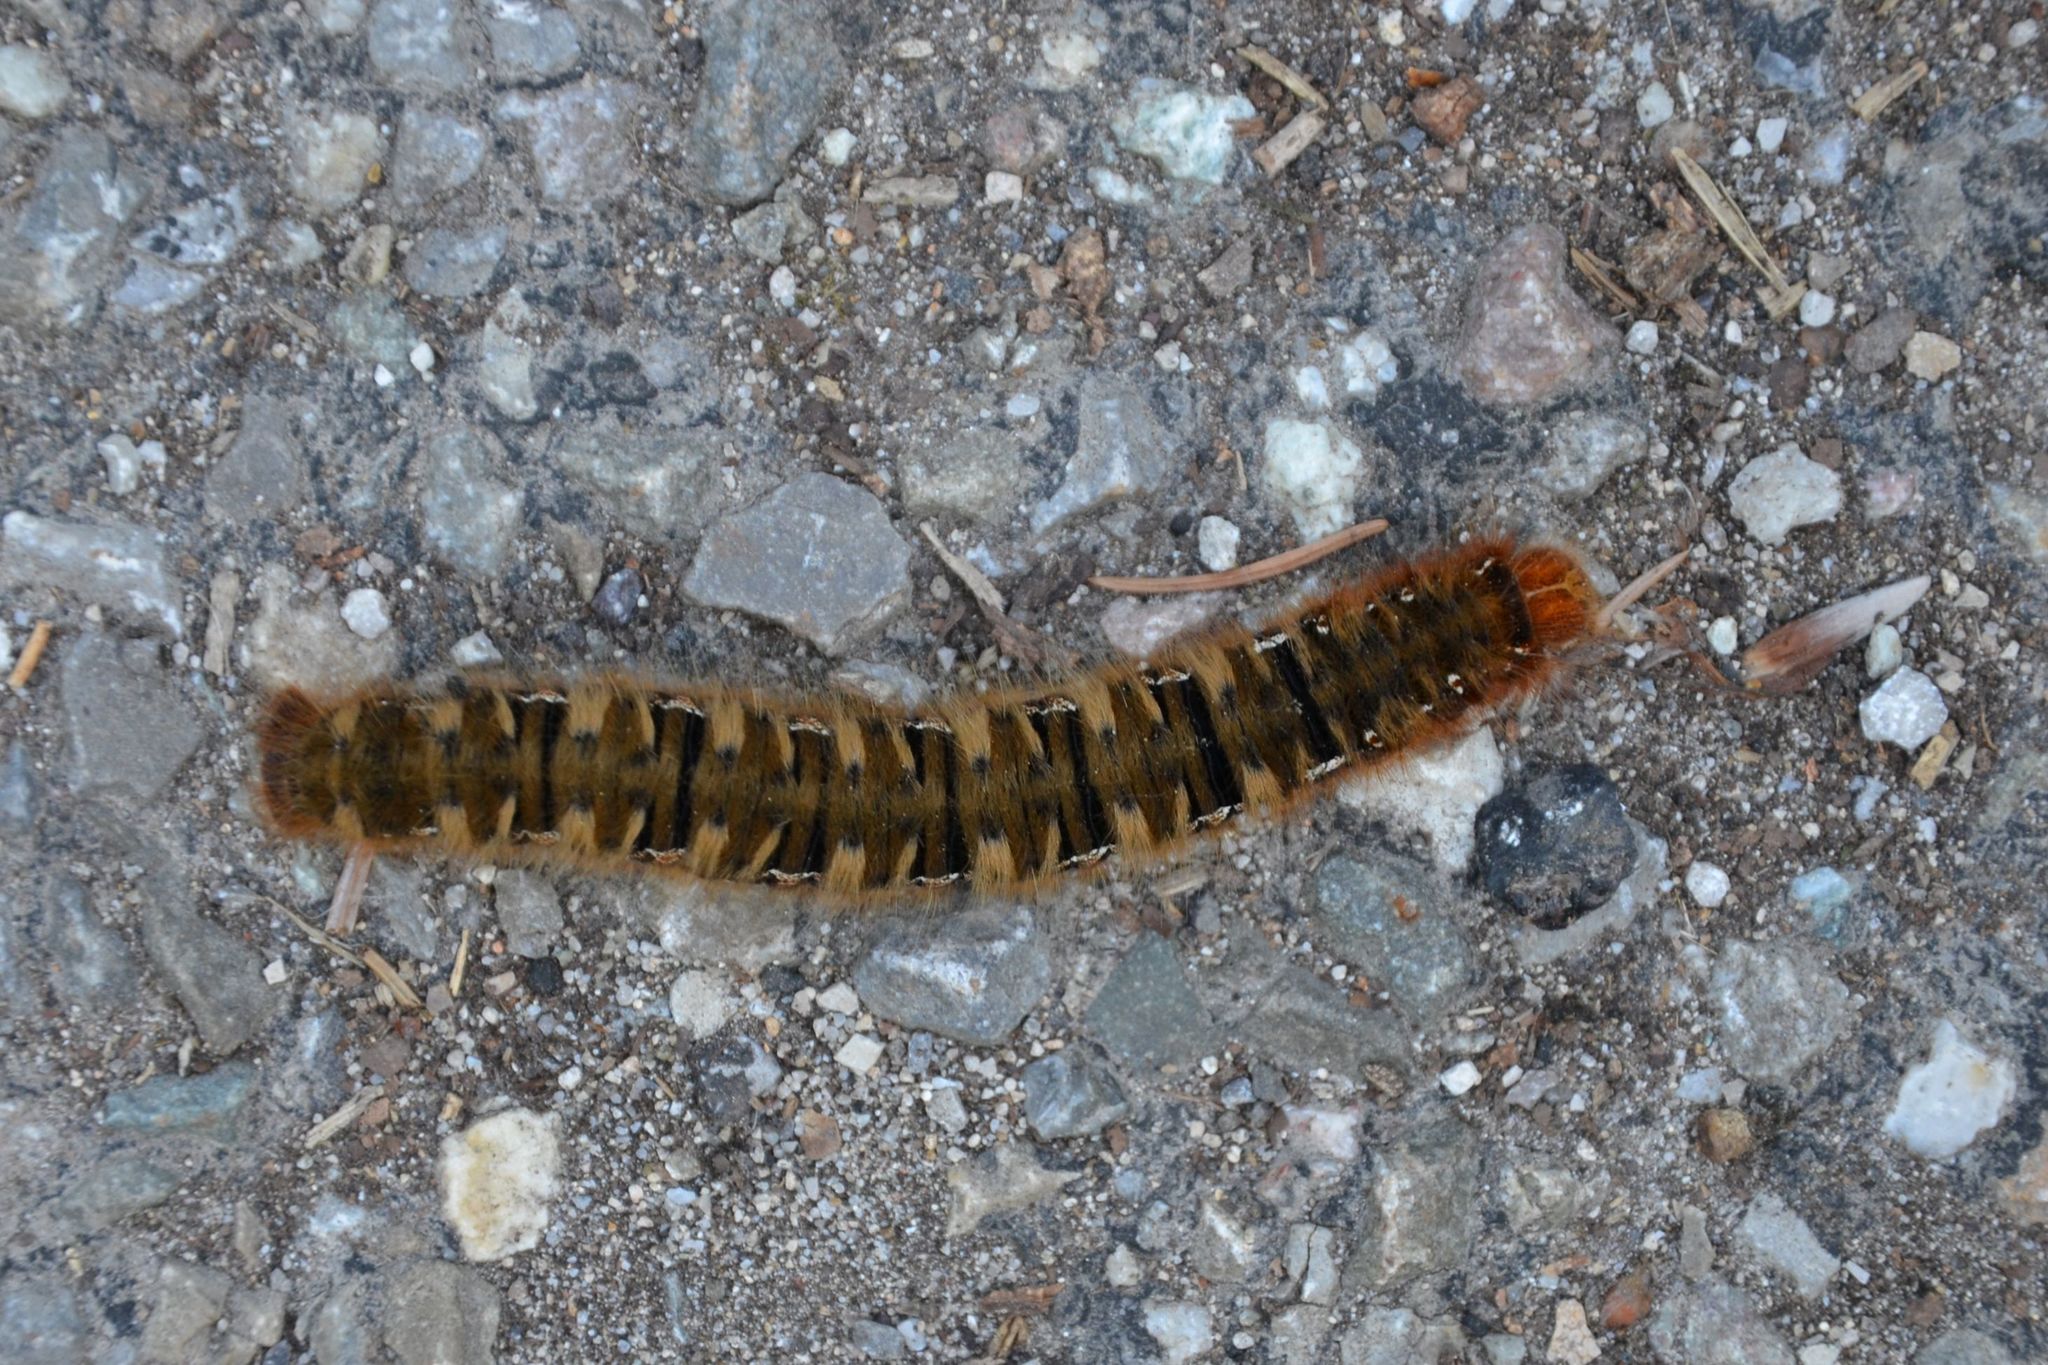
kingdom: Animalia
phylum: Arthropoda
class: Insecta
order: Lepidoptera
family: Lasiocampidae
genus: Lasiocampa
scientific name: Lasiocampa quercus
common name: Oak eggar
